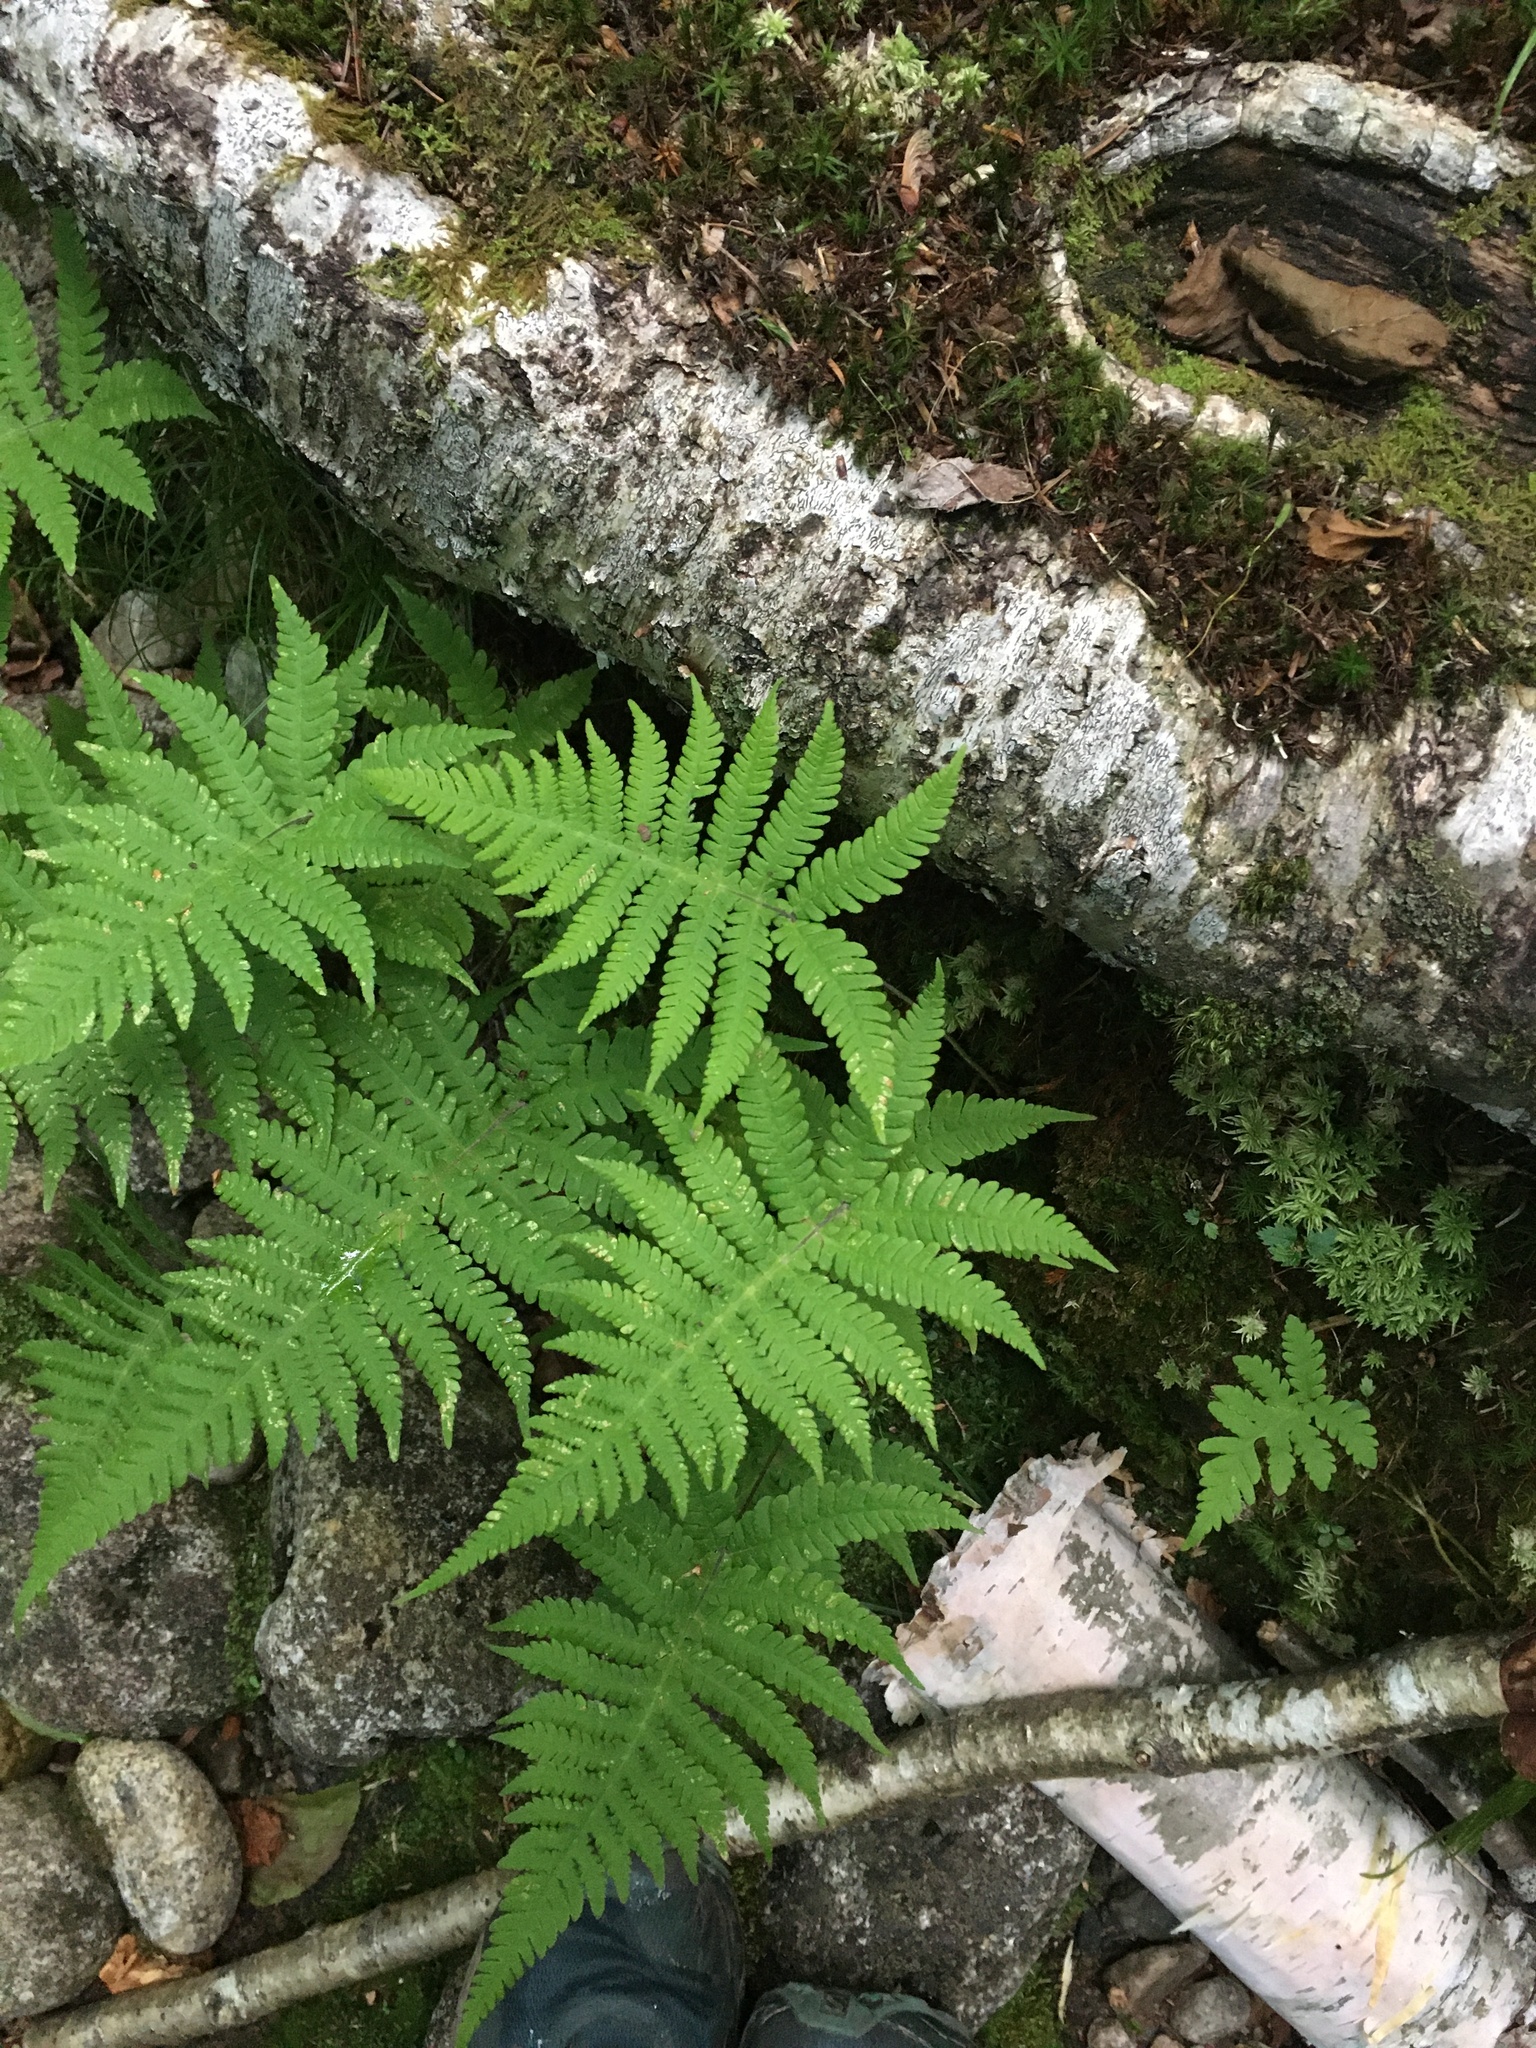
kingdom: Plantae
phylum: Tracheophyta
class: Polypodiopsida
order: Polypodiales
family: Thelypteridaceae
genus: Phegopteris
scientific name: Phegopteris connectilis
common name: Beech fern
